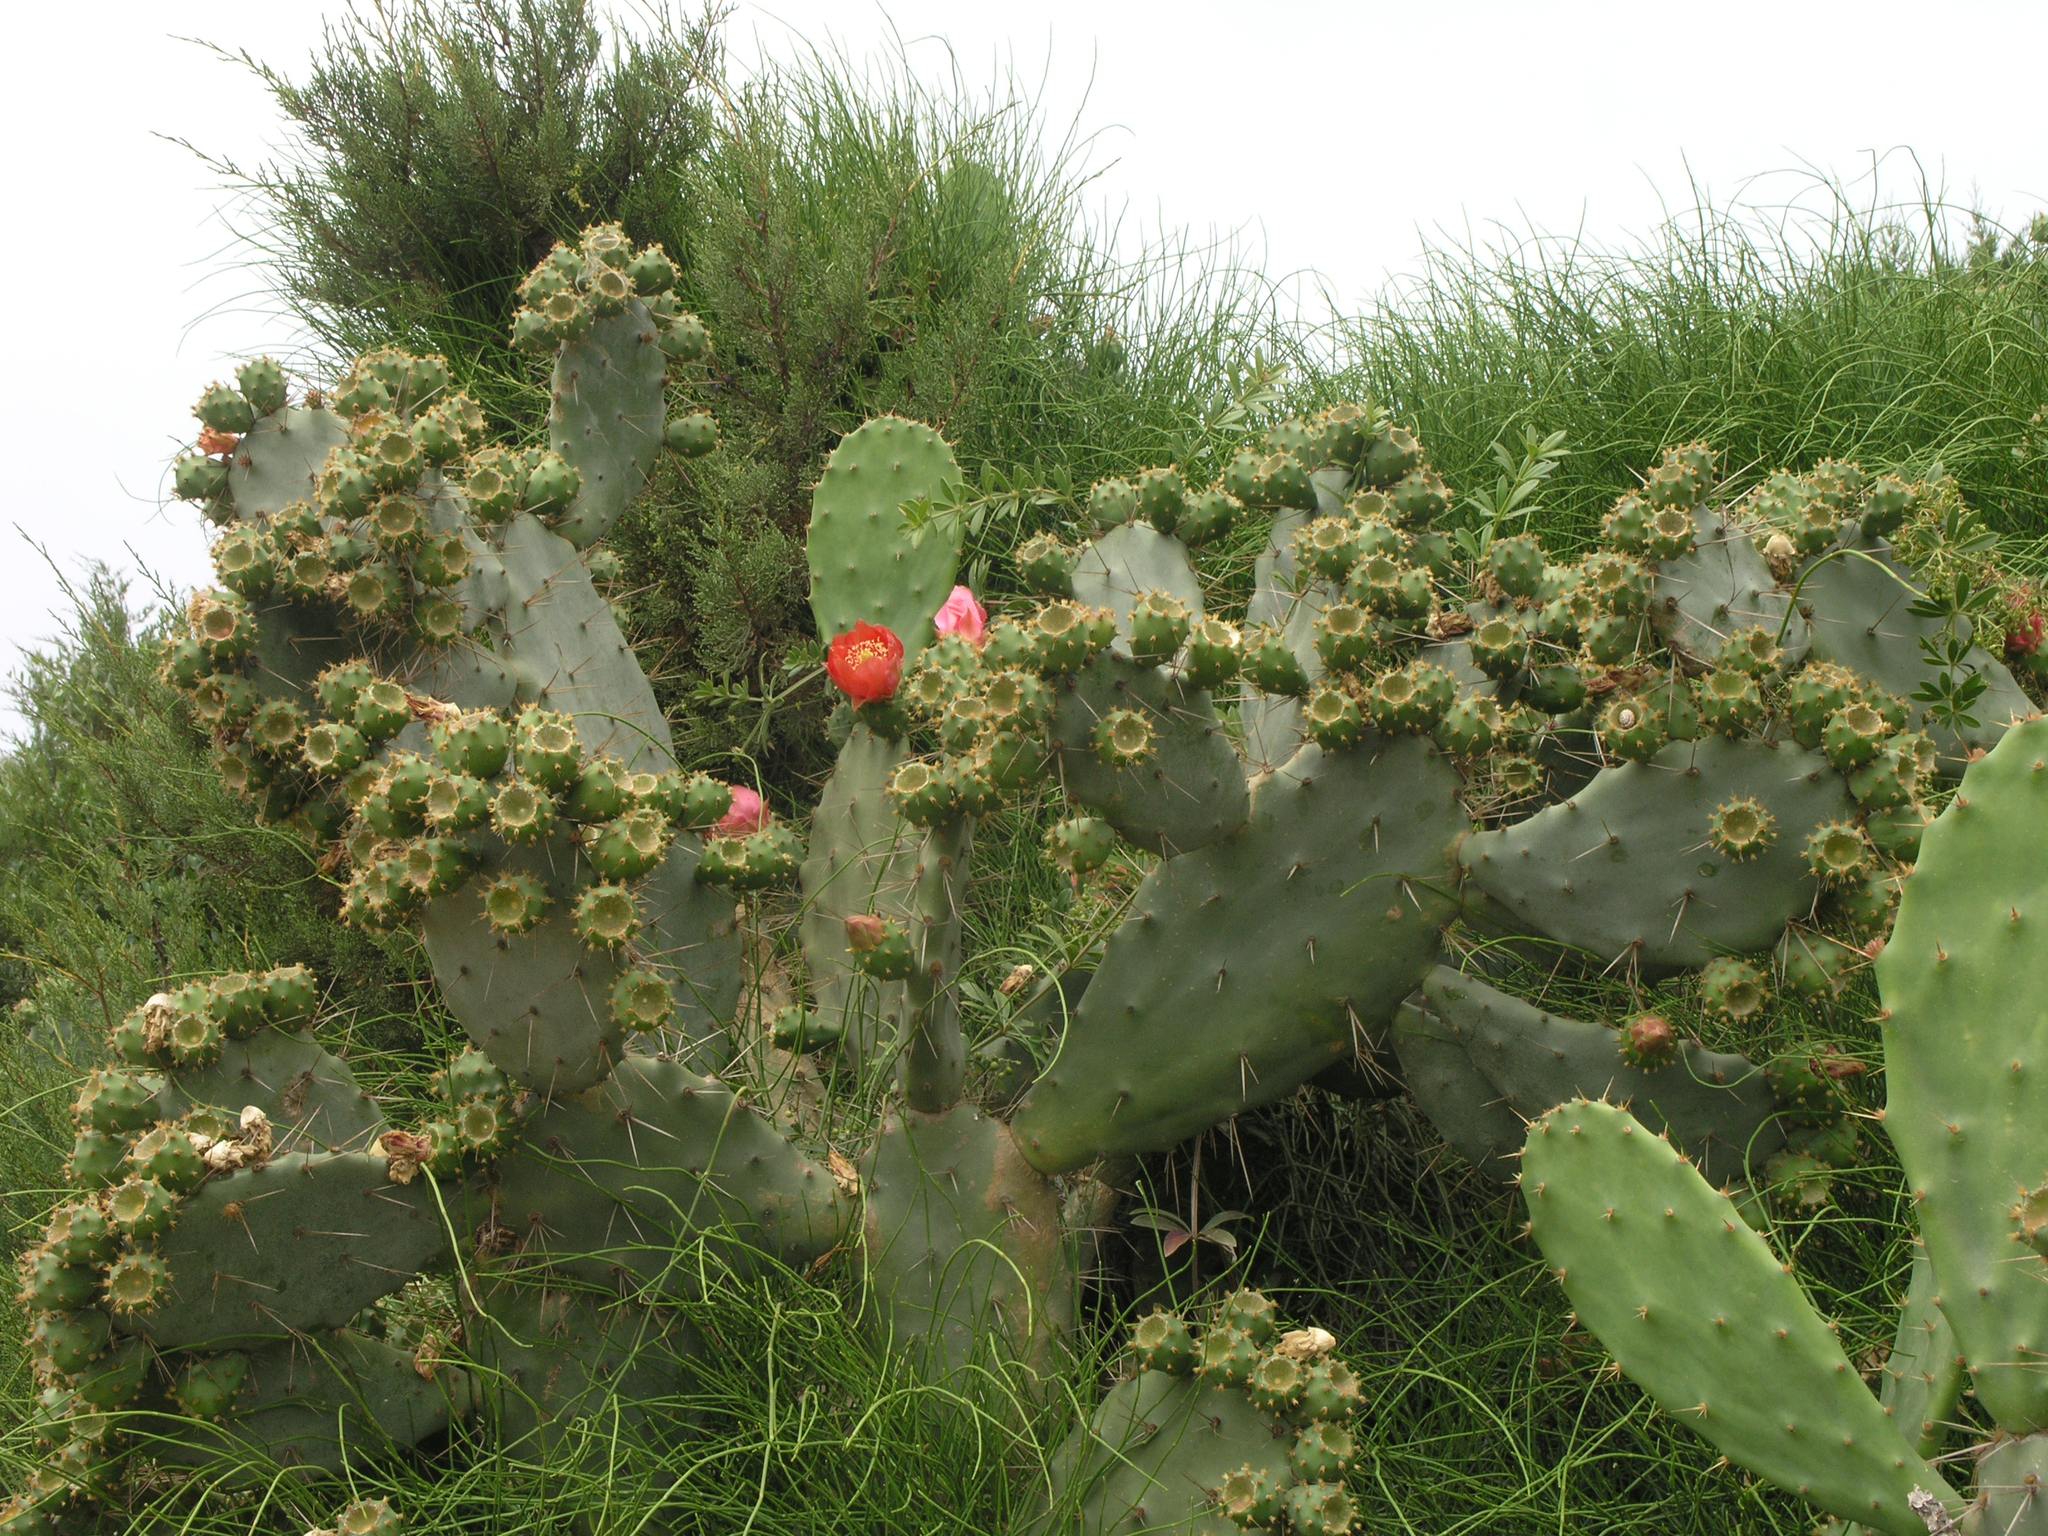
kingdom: Plantae
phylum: Tracheophyta
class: Magnoliopsida
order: Caryophyllales
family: Cactaceae
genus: Opuntia
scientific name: Opuntia elatior
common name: Tuna
